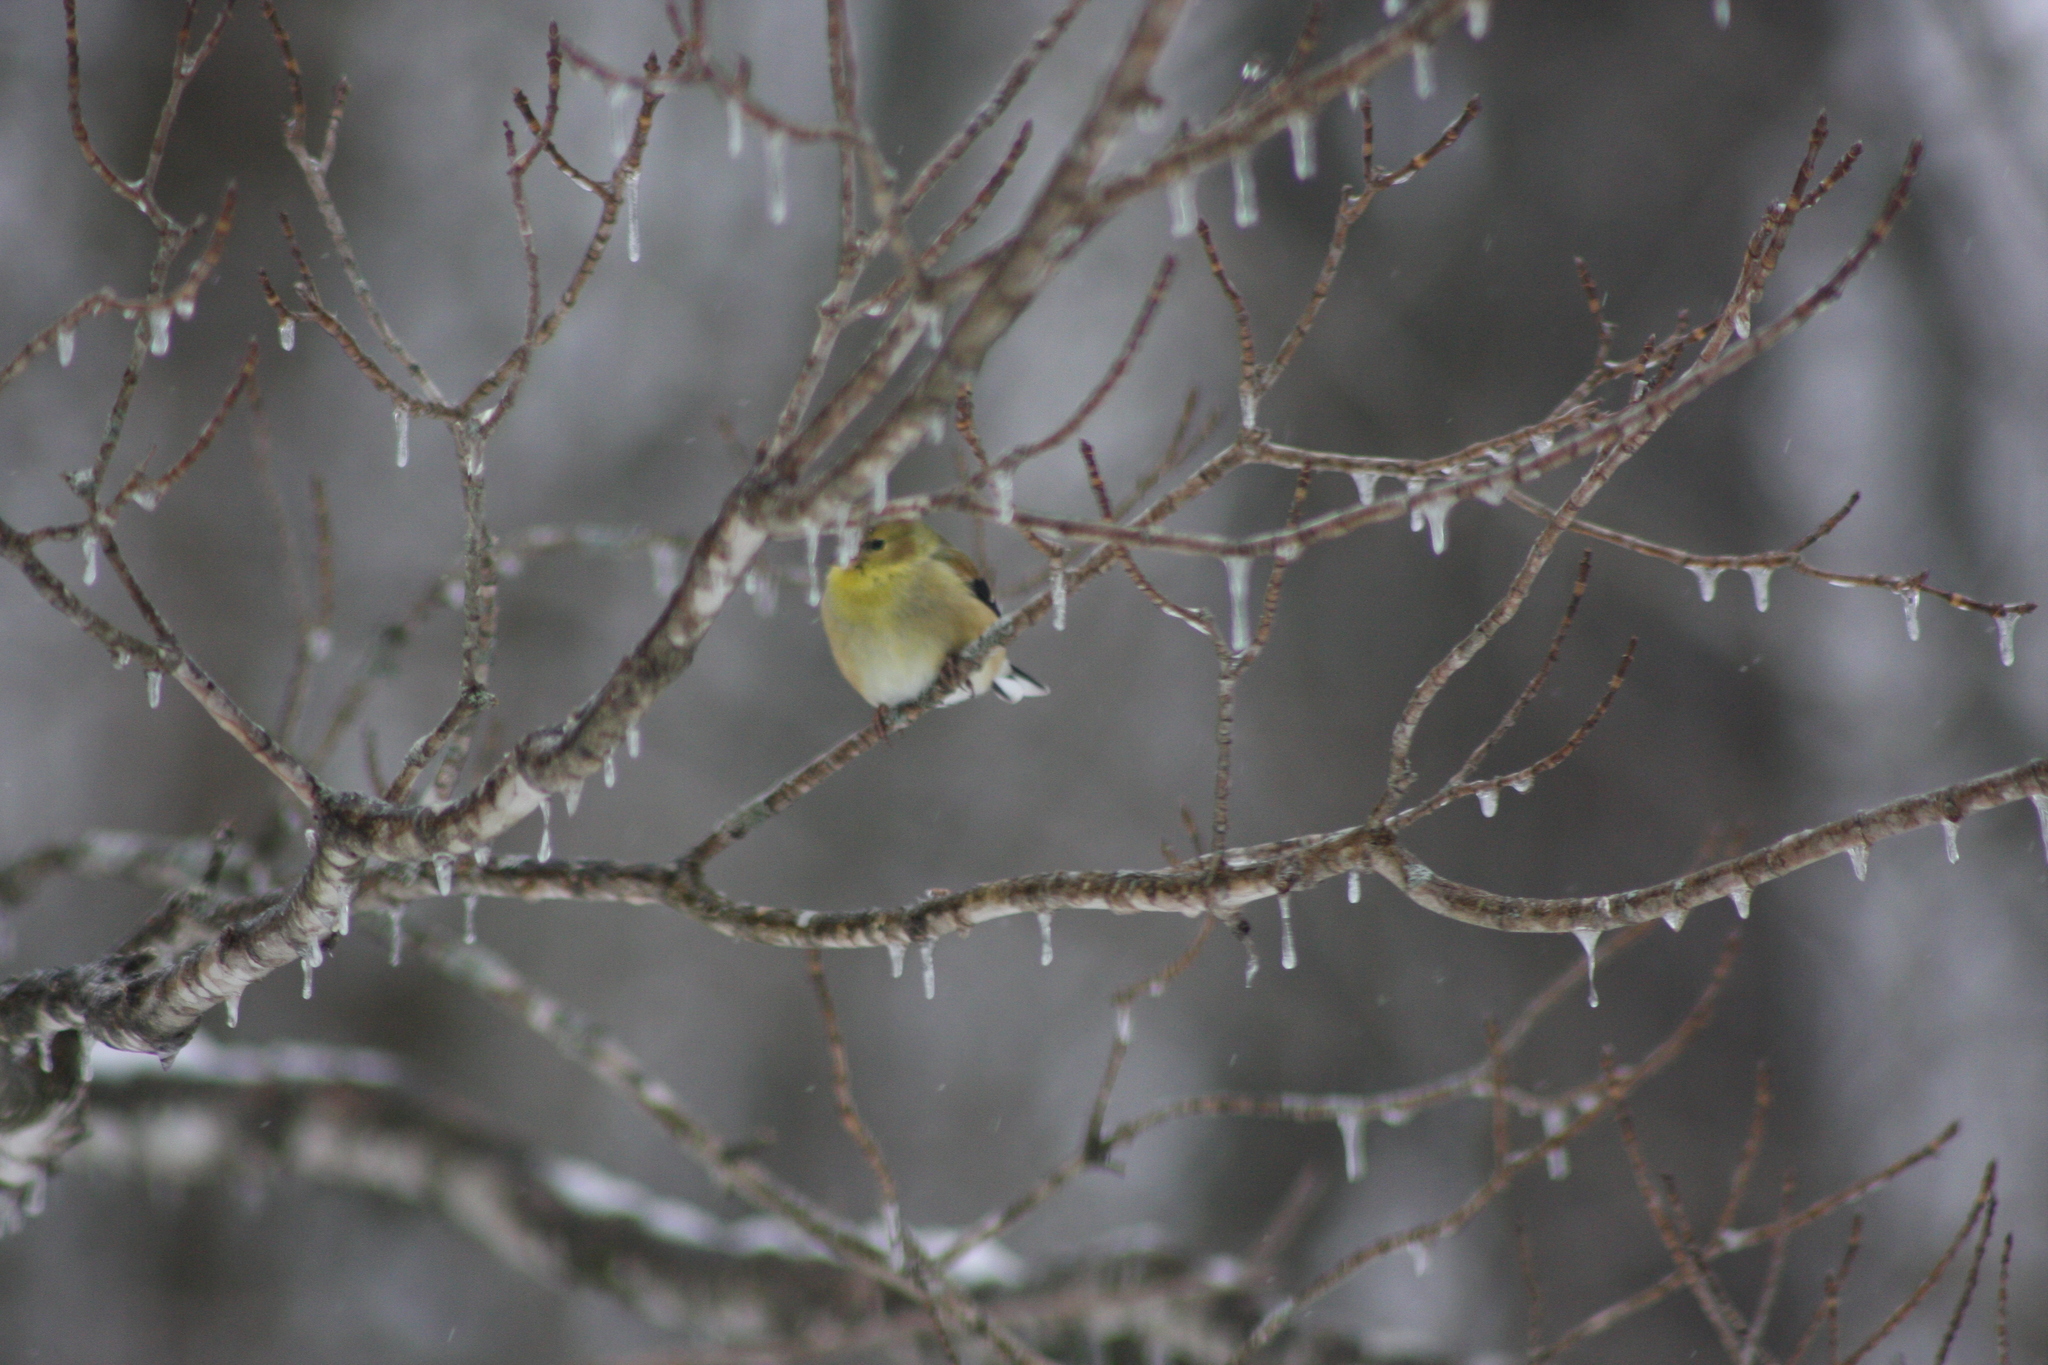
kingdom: Animalia
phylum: Chordata
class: Aves
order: Passeriformes
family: Fringillidae
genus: Spinus
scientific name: Spinus tristis
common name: American goldfinch
